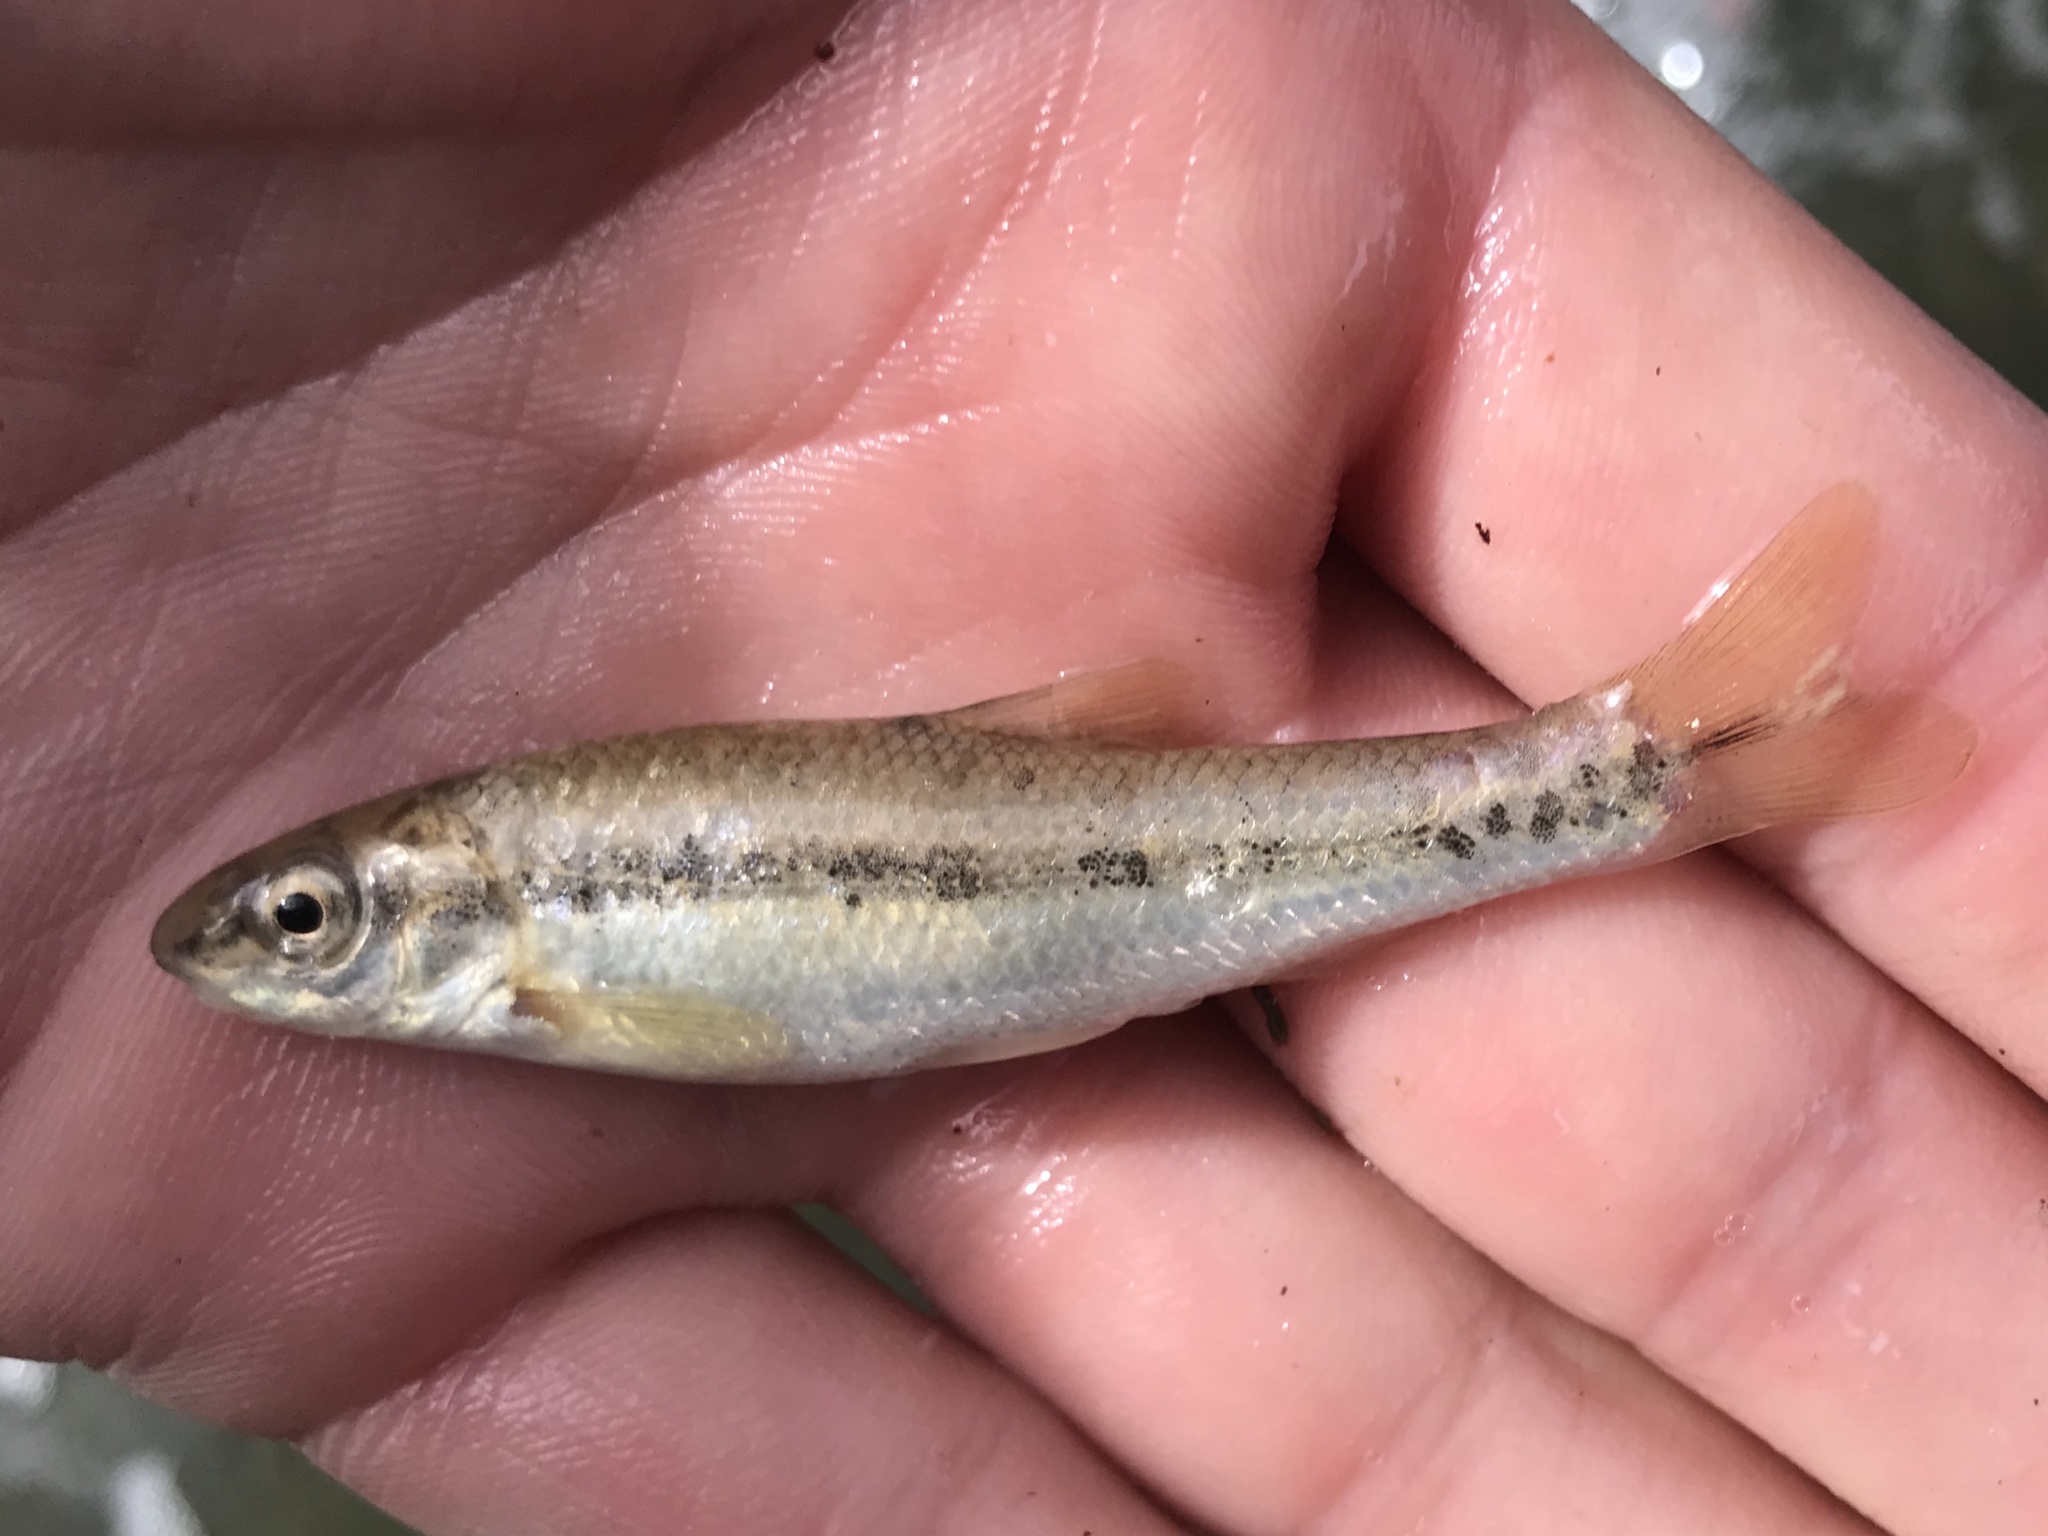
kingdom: Animalia
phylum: Chordata
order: Cypriniformes
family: Cyprinidae
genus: Campostoma
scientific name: Campostoma anomalum
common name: Central stoneroller
